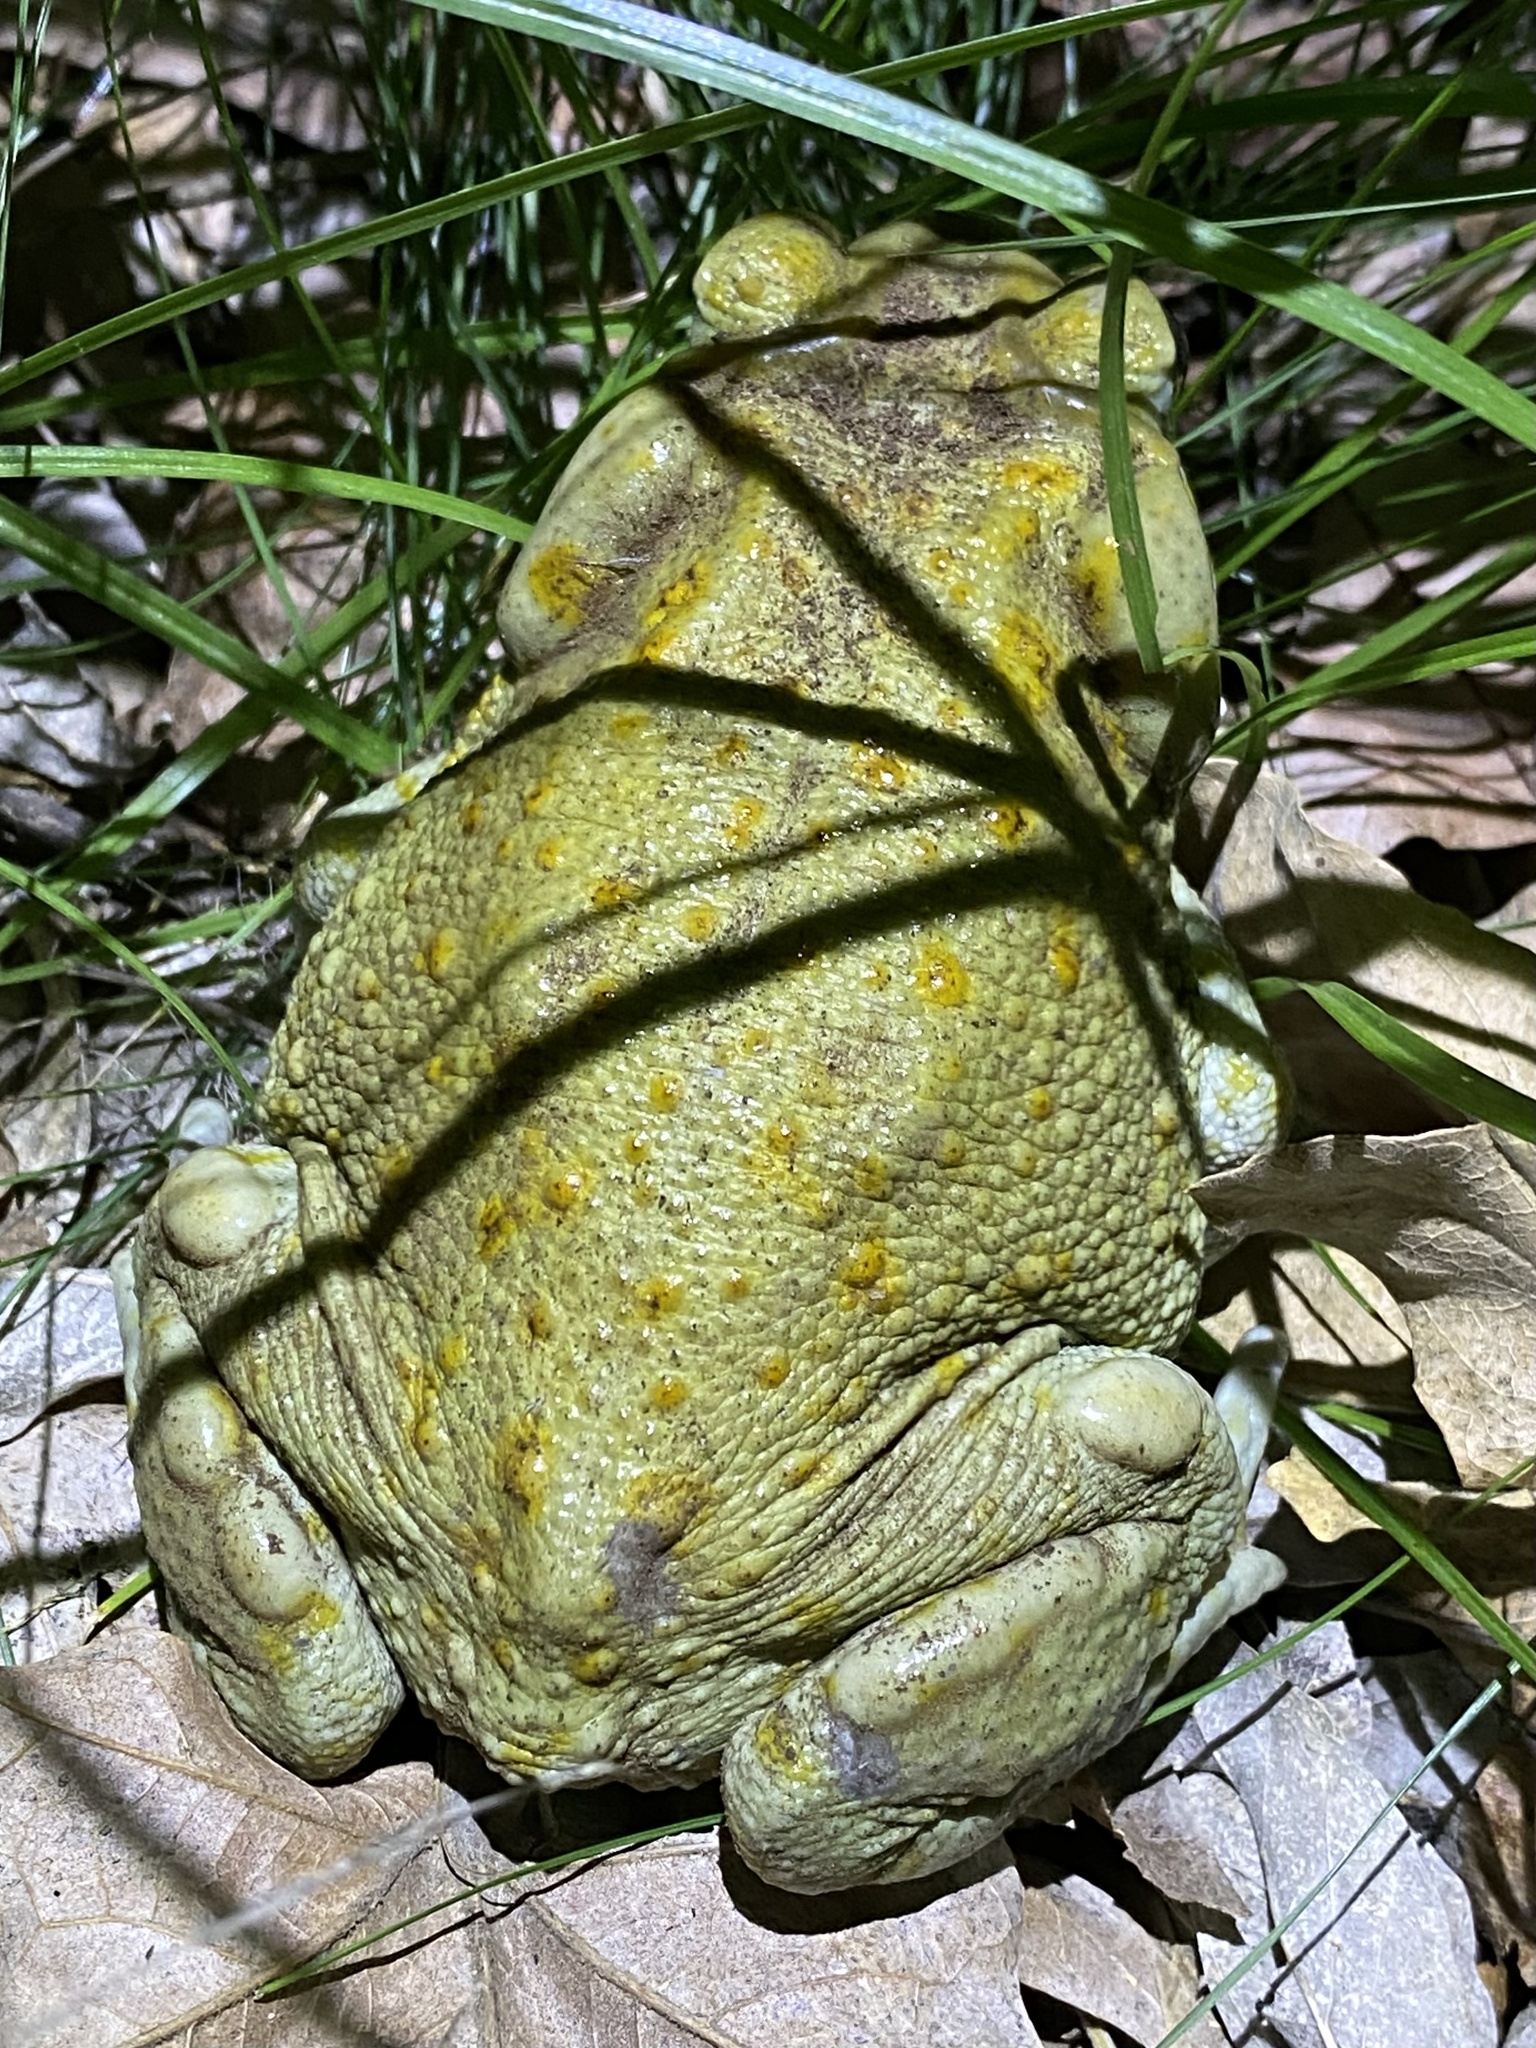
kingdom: Animalia
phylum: Chordata
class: Amphibia
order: Anura
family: Bufonidae
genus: Incilius
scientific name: Incilius alvarius
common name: Sonoran desert toad
